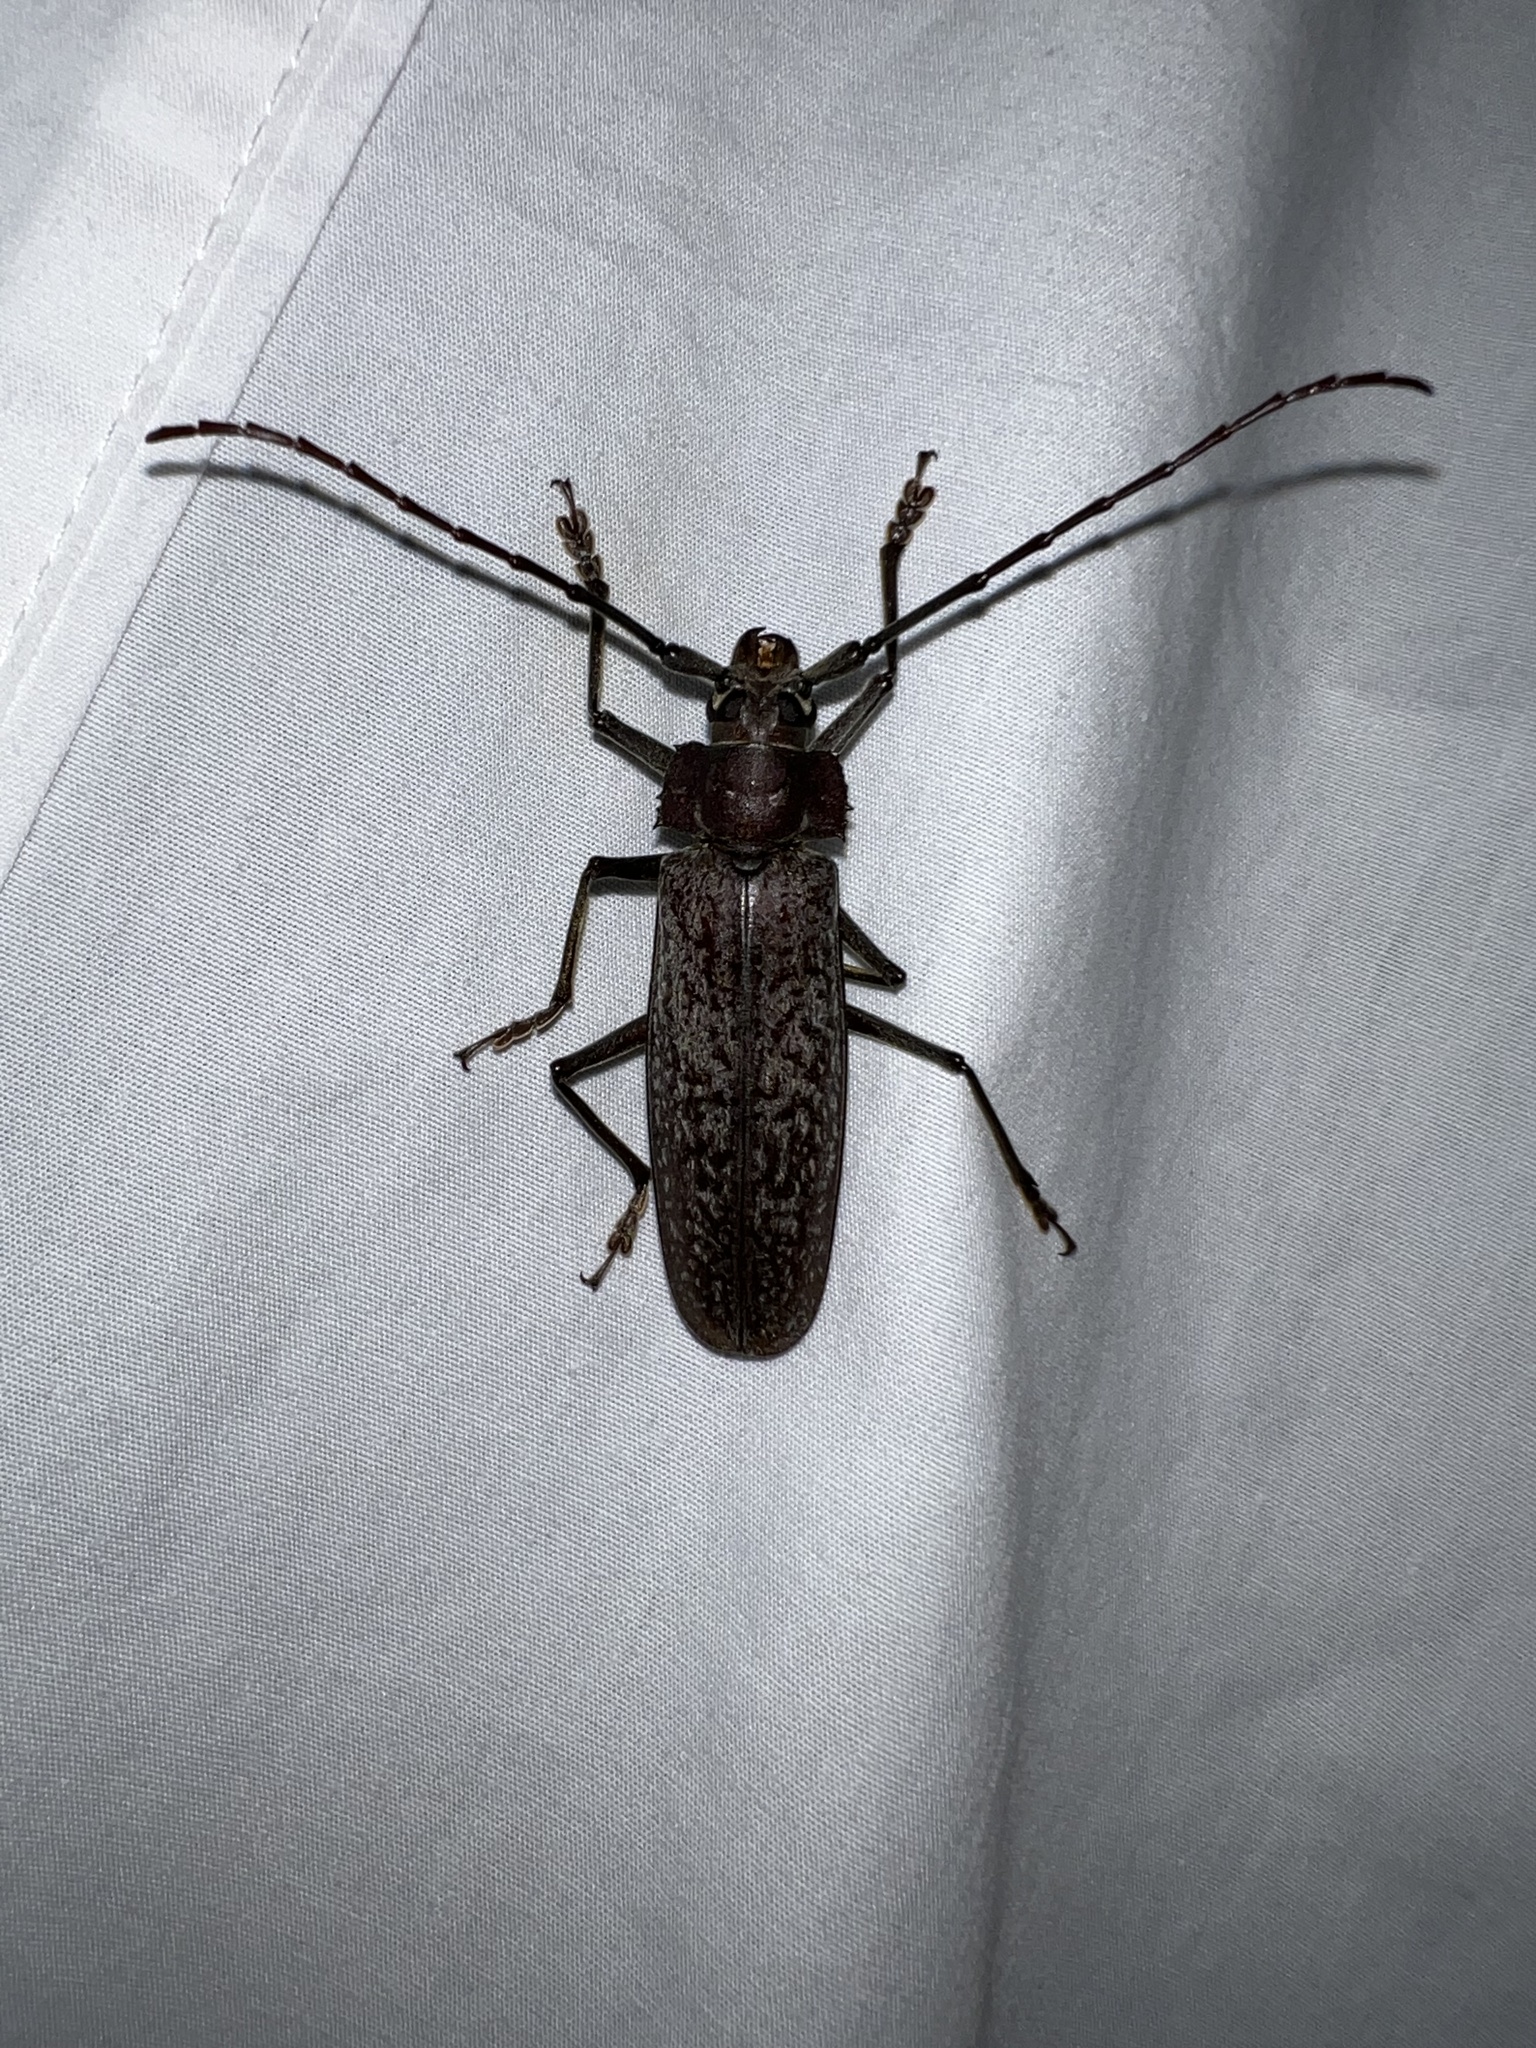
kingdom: Animalia
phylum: Arthropoda
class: Insecta
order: Coleoptera
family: Cerambycidae
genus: Callipogon
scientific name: Callipogon proletarius
